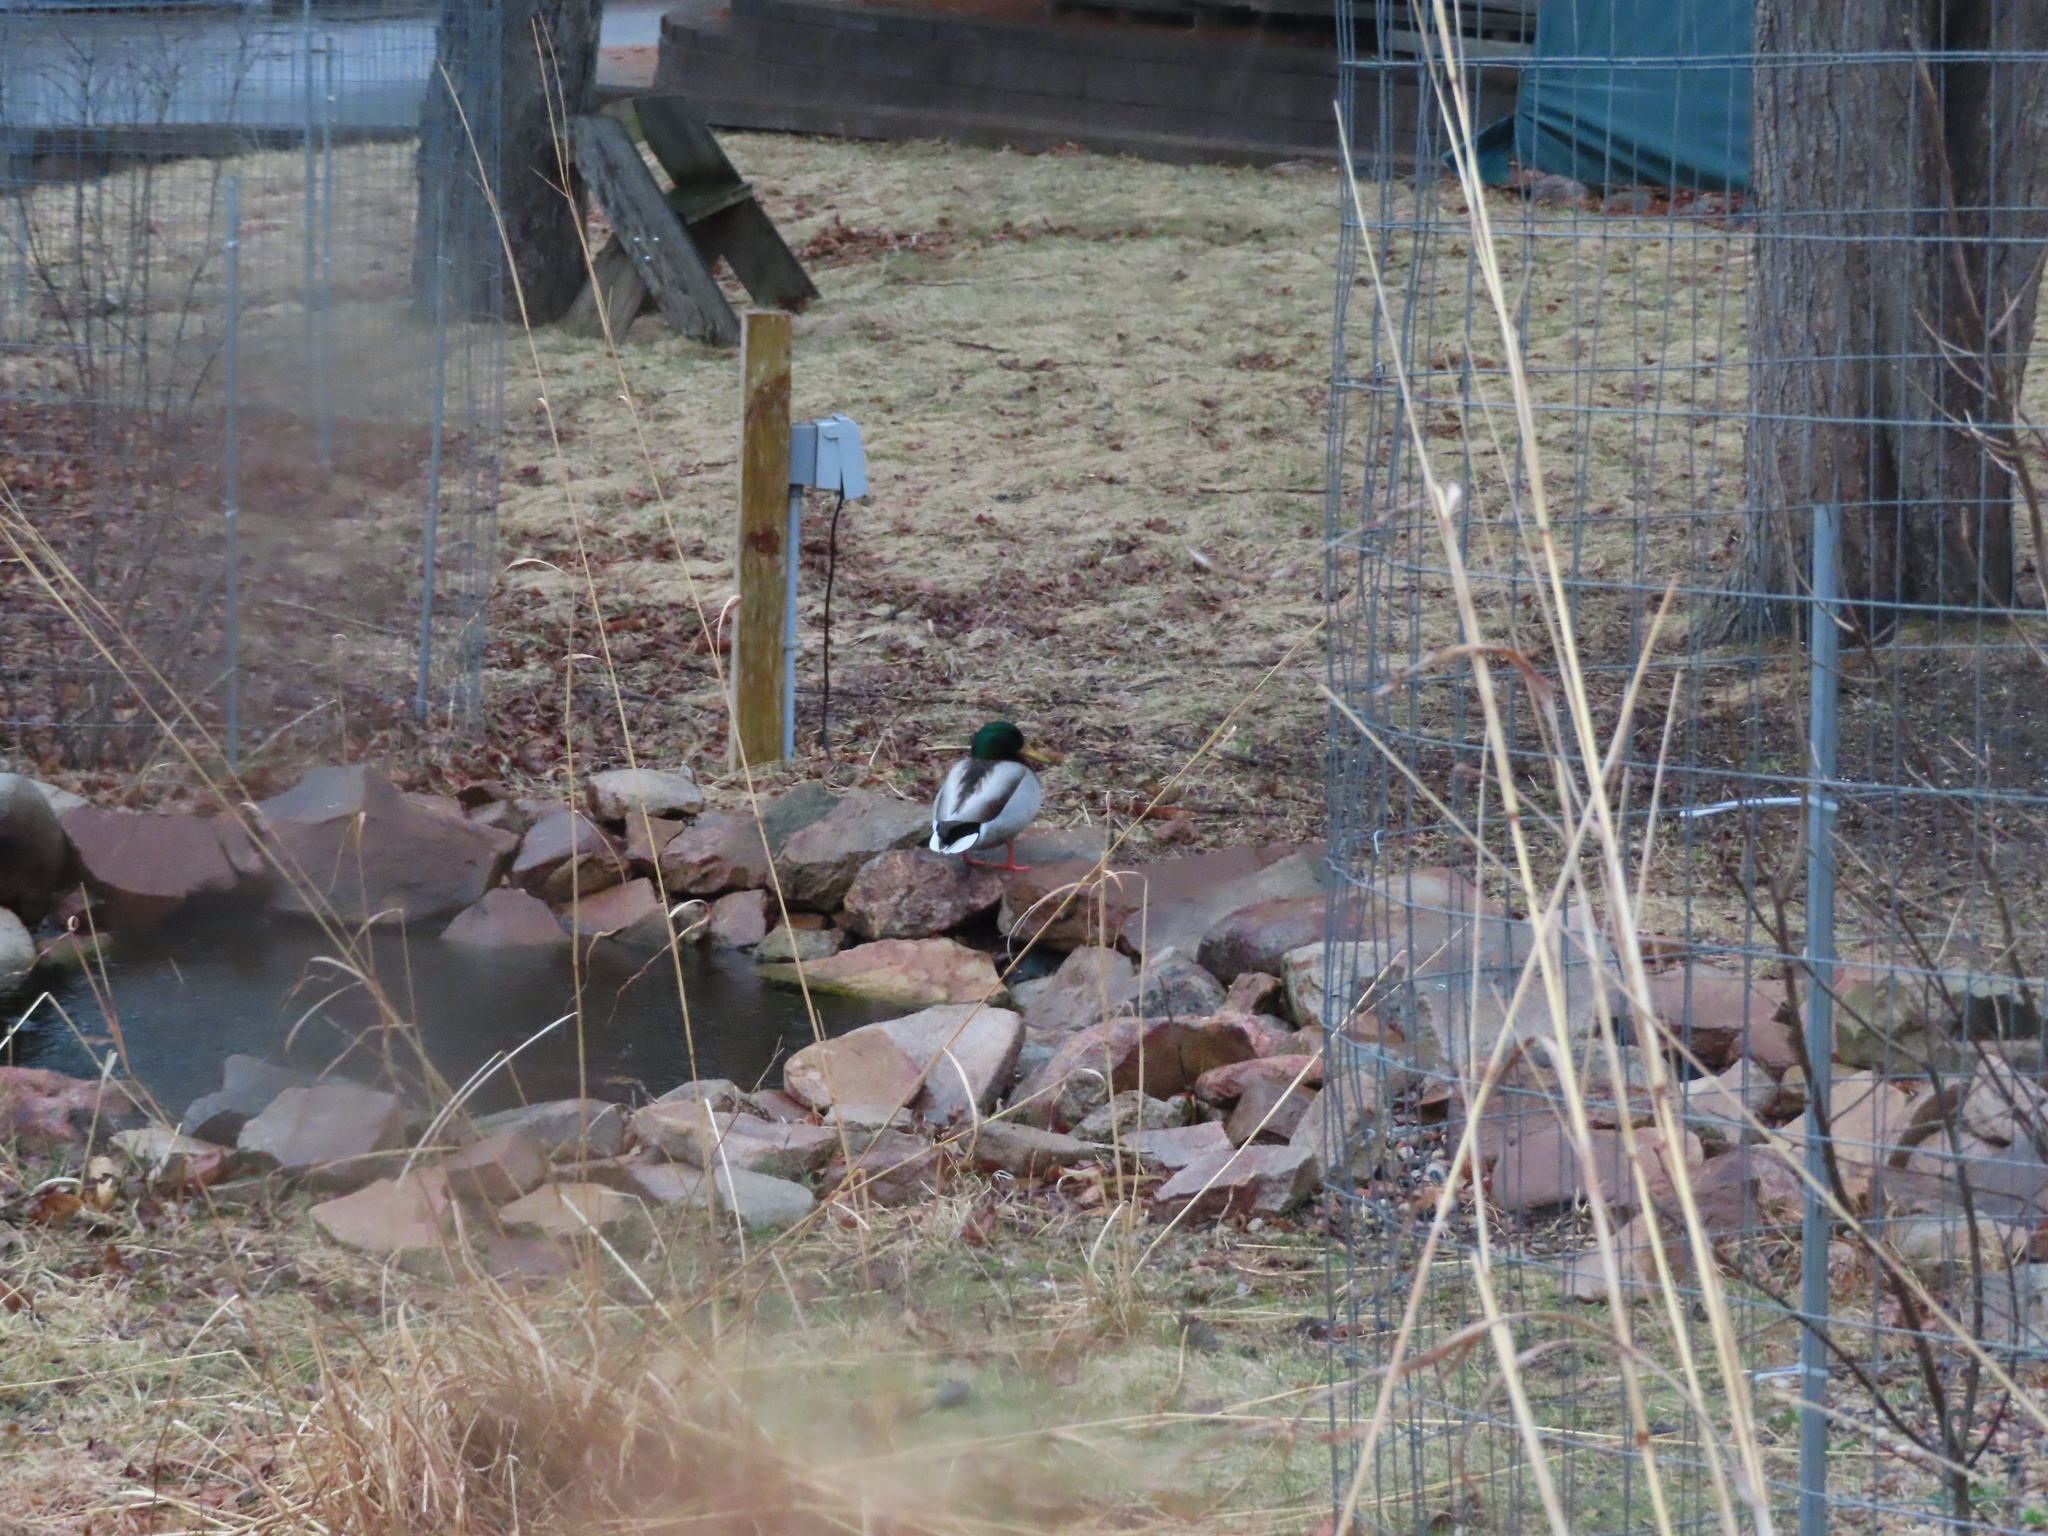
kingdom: Animalia
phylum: Chordata
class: Aves
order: Anseriformes
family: Anatidae
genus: Anas
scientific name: Anas platyrhynchos
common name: Mallard
